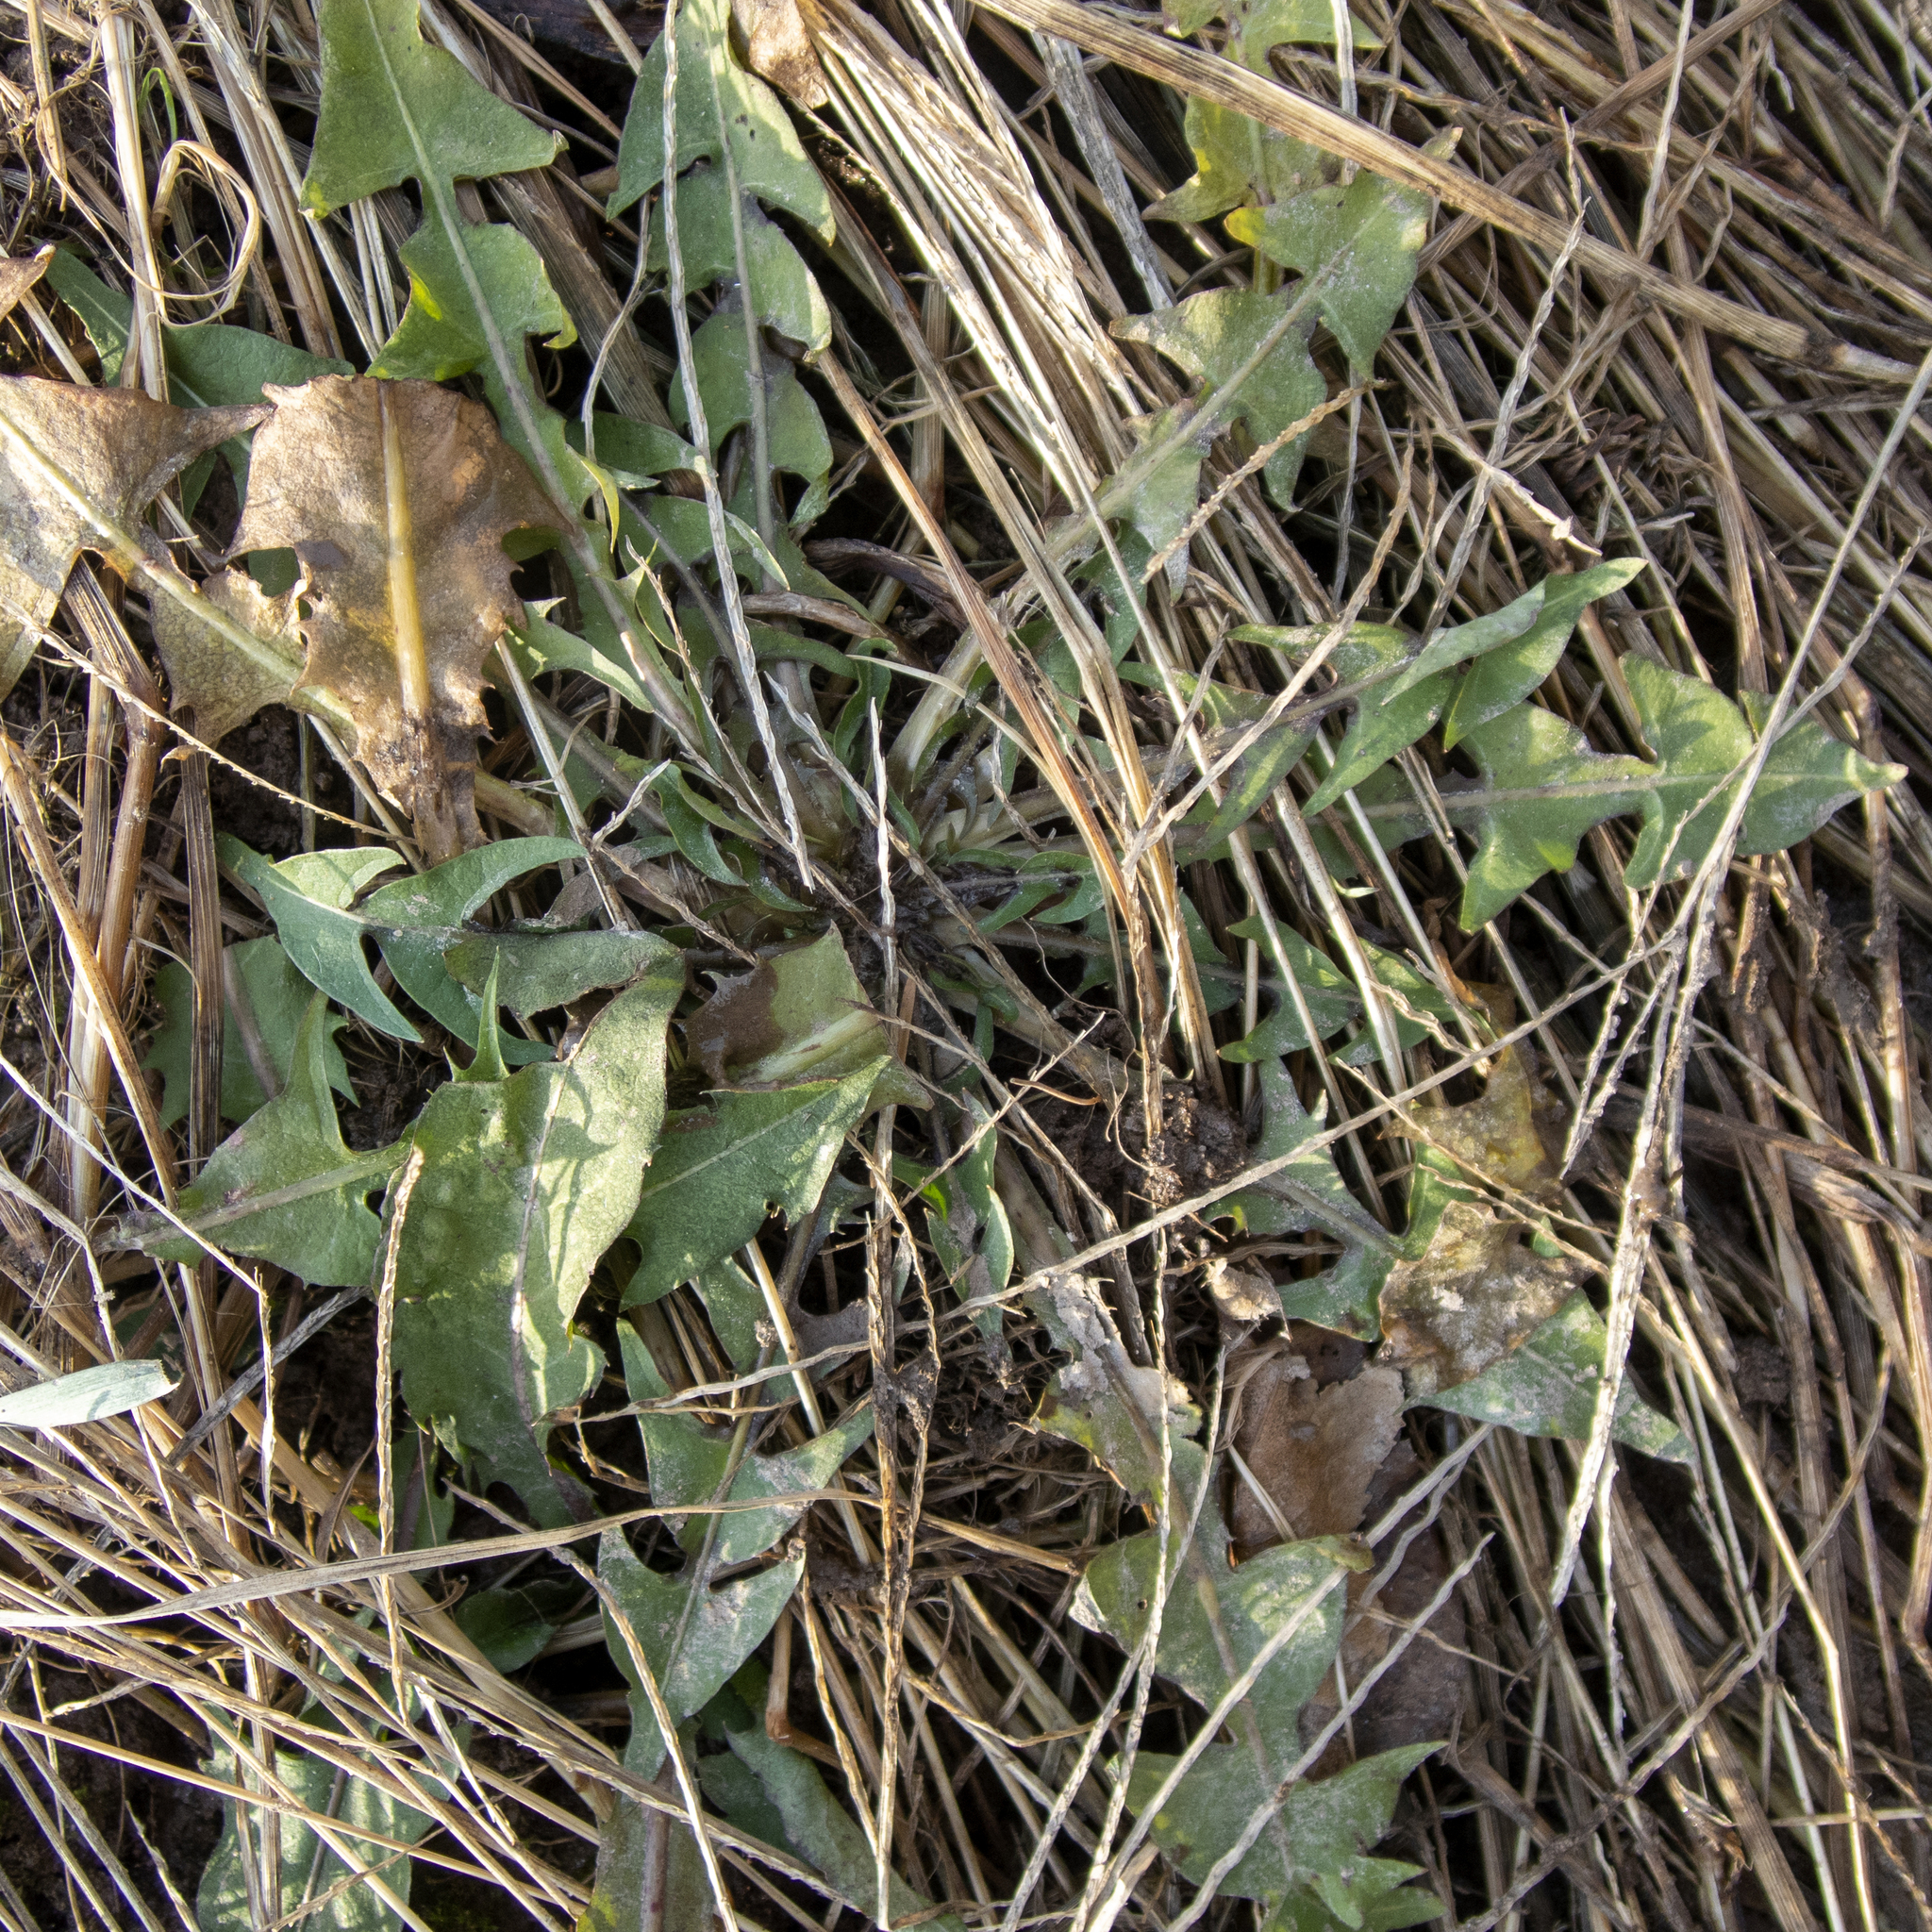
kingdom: Plantae
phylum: Tracheophyta
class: Magnoliopsida
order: Asterales
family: Asteraceae
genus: Taraxacum
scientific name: Taraxacum officinale
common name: Common dandelion
